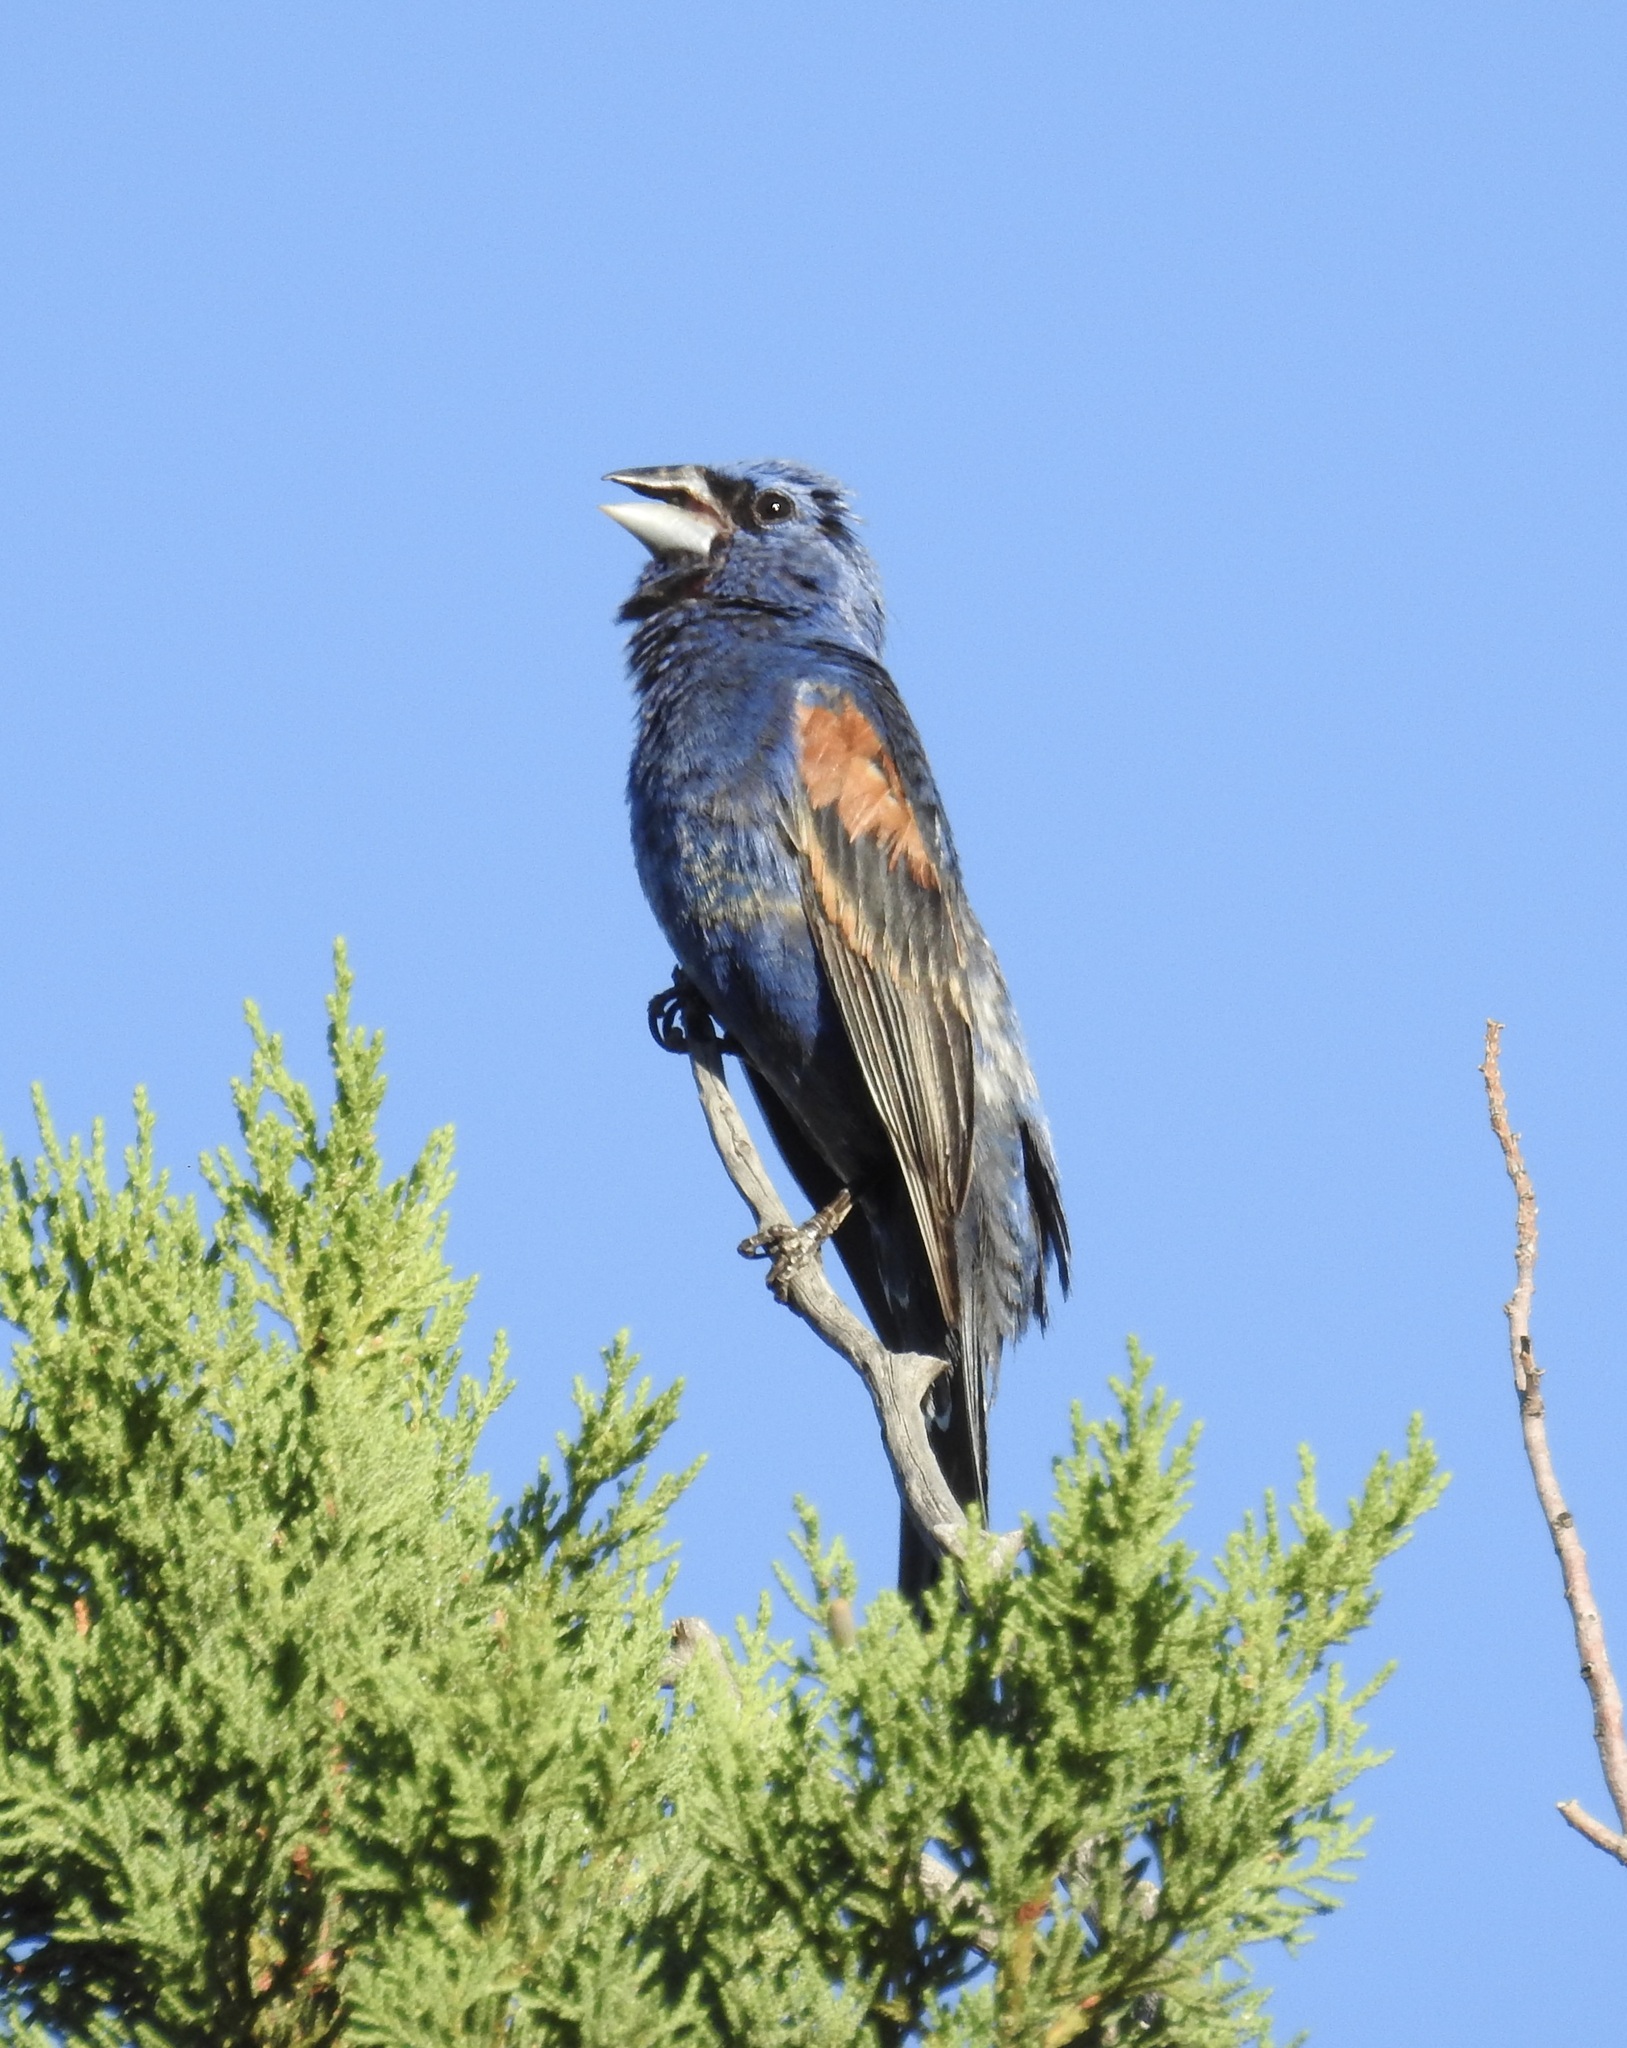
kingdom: Animalia
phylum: Chordata
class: Aves
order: Passeriformes
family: Cardinalidae
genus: Passerina
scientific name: Passerina caerulea
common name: Blue grosbeak
